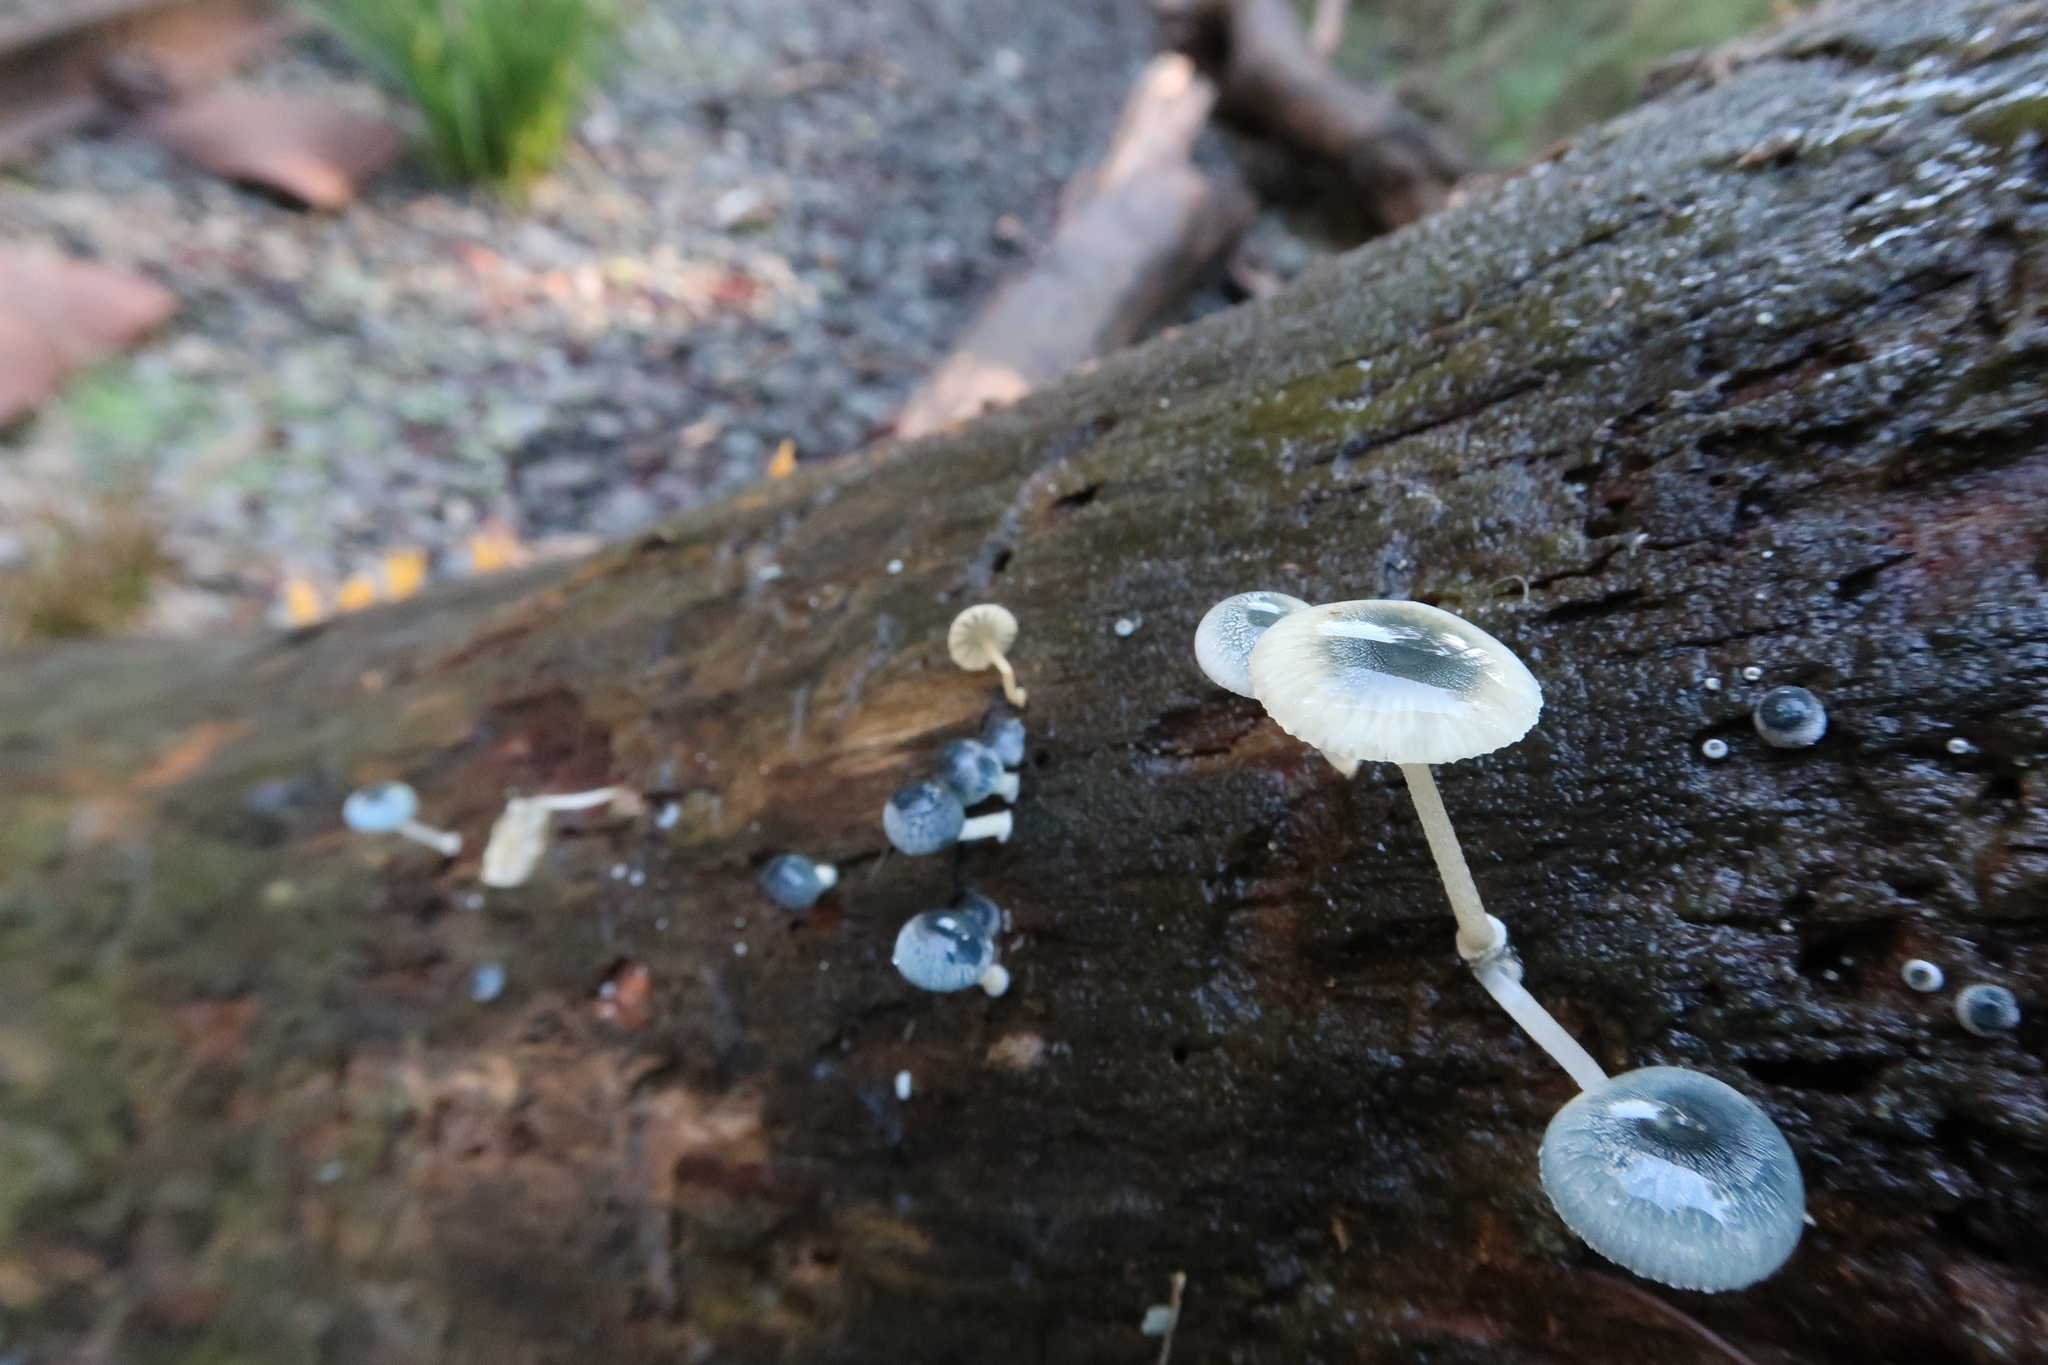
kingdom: Fungi
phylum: Basidiomycota
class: Agaricomycetes
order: Agaricales
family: Mycenaceae
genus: Mycena
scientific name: Mycena interrupta
